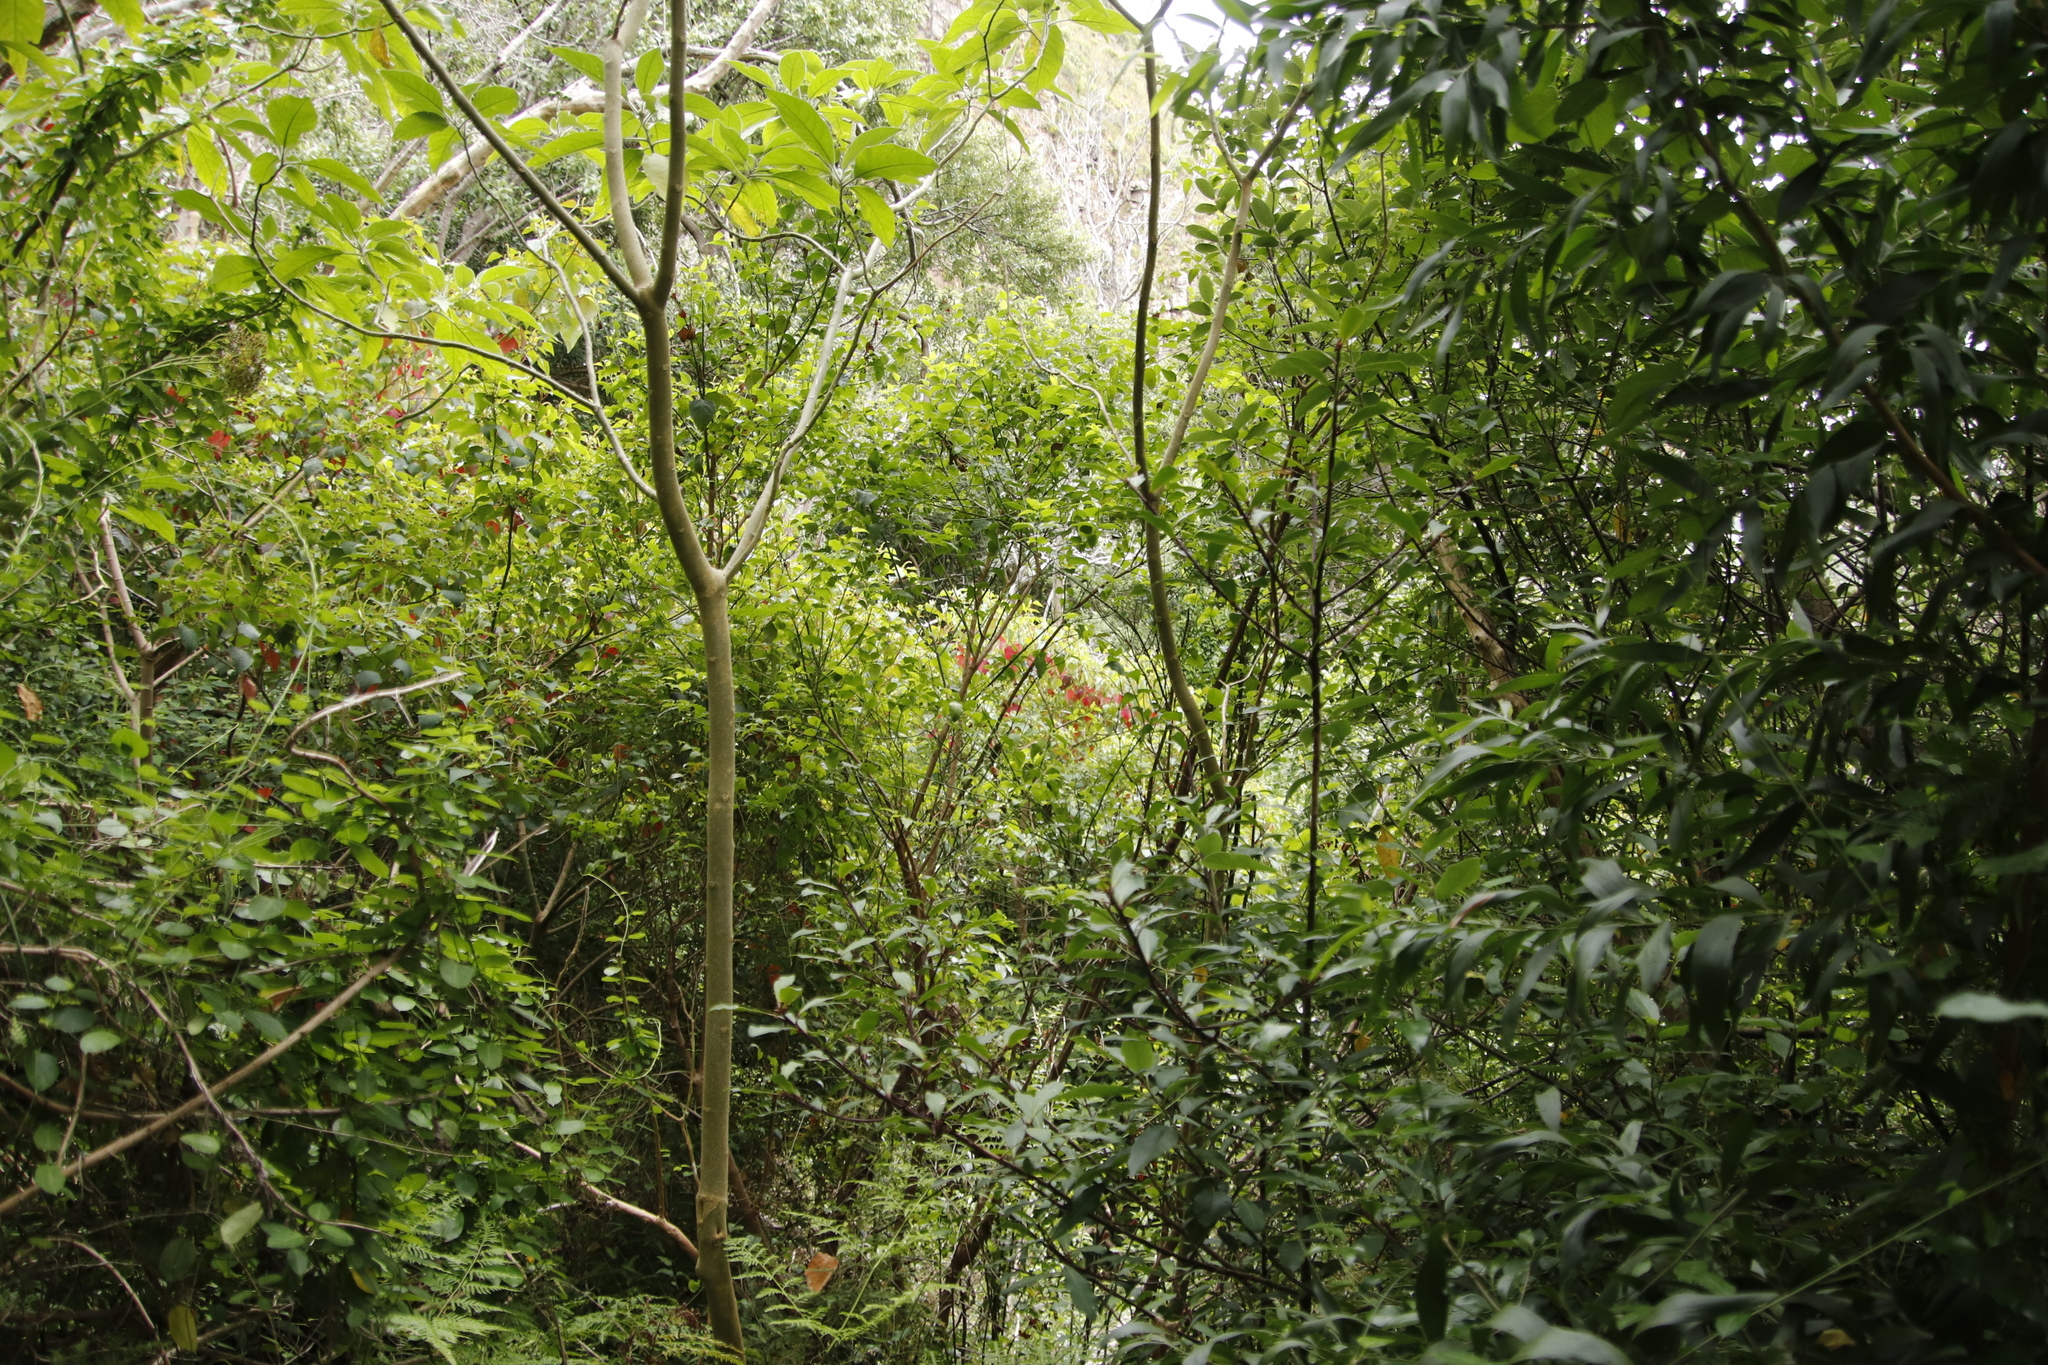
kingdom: Plantae
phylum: Tracheophyta
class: Magnoliopsida
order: Malpighiales
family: Euphorbiaceae
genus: Homalanthus
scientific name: Homalanthus populifolius
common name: Queensland poplar
